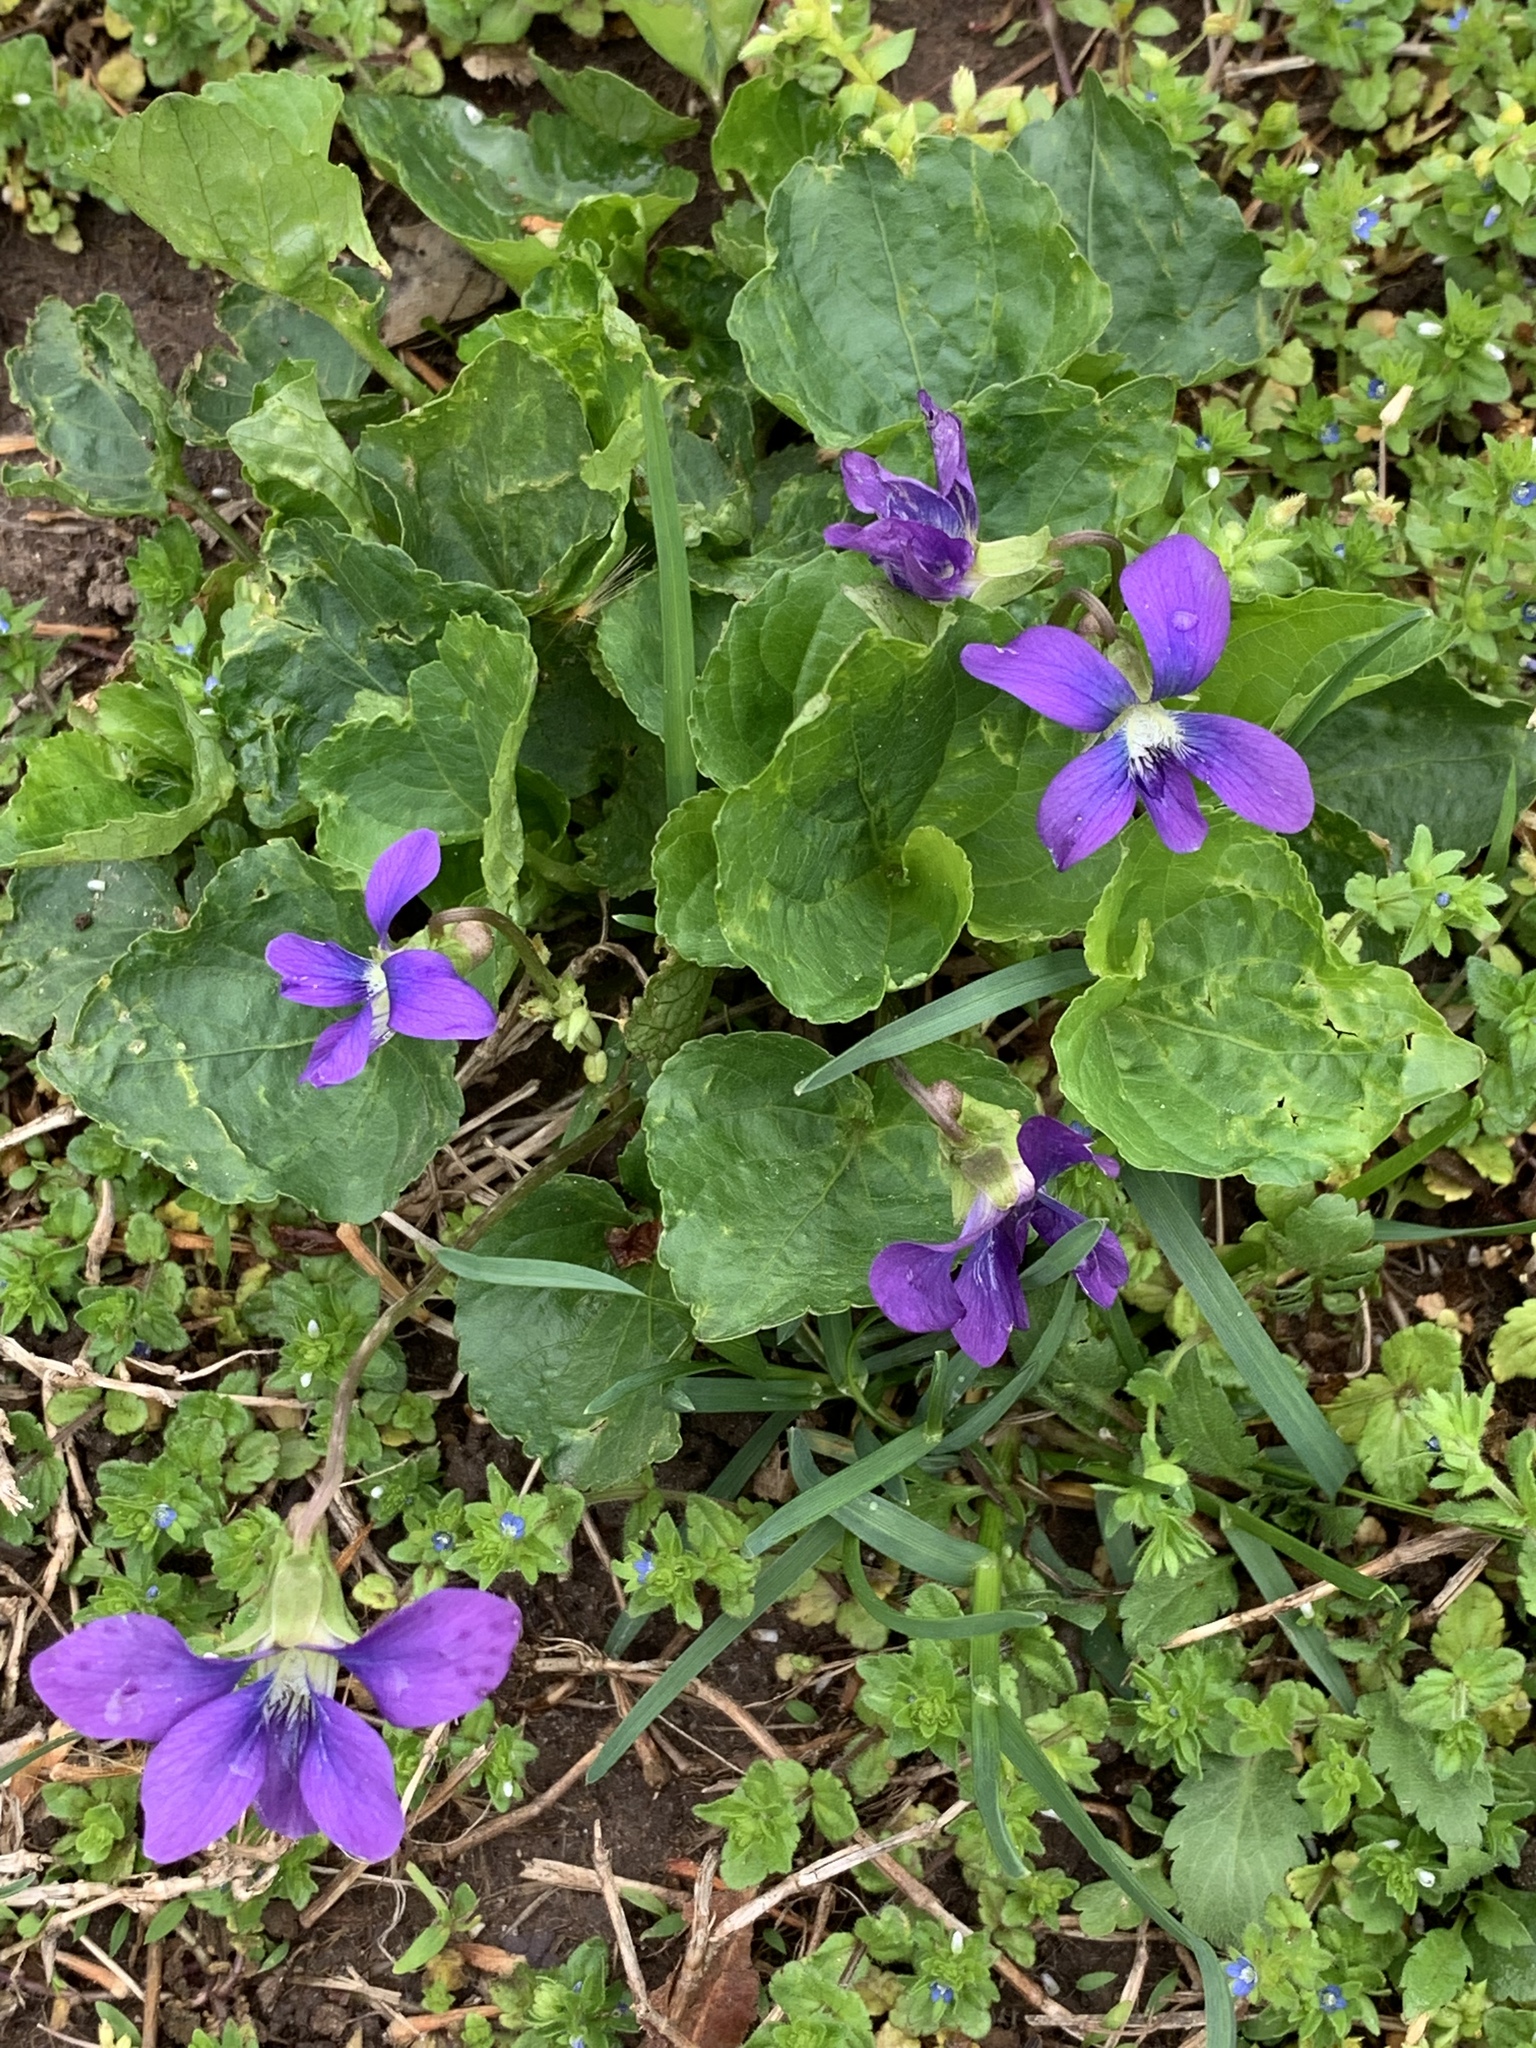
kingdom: Plantae
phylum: Tracheophyta
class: Magnoliopsida
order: Malpighiales
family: Violaceae
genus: Viola
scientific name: Viola sororia
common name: Dooryard violet
